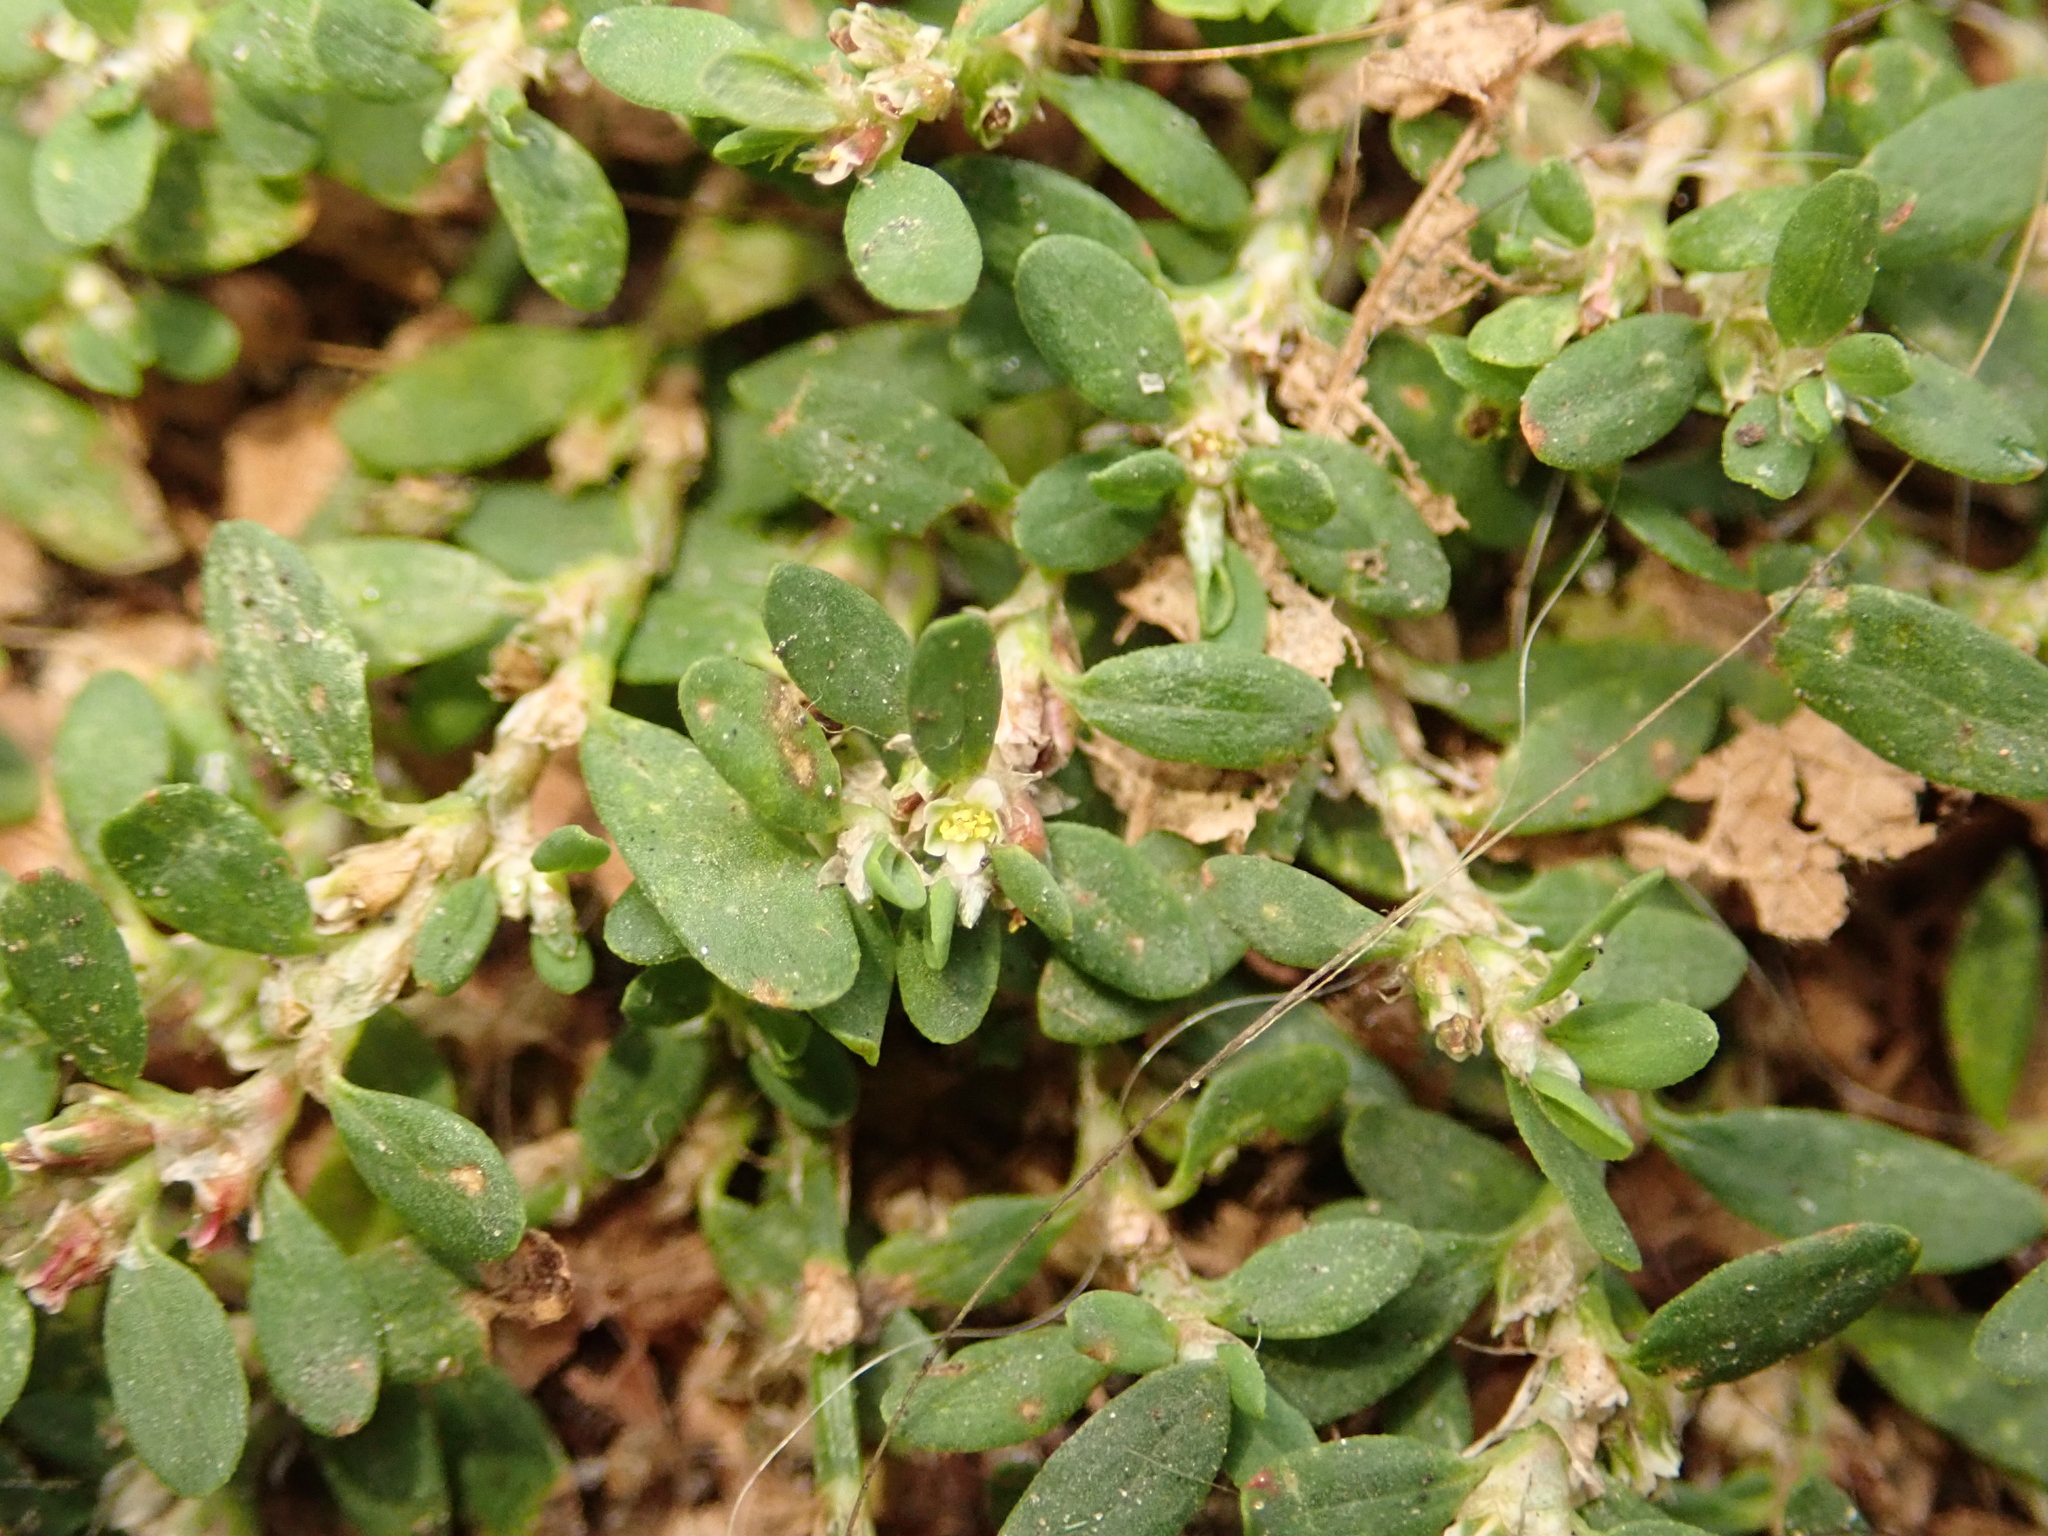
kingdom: Plantae
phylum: Tracheophyta
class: Magnoliopsida
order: Caryophyllales
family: Polygonaceae
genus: Polygonum
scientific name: Polygonum aviculare
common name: Prostrate knotweed
